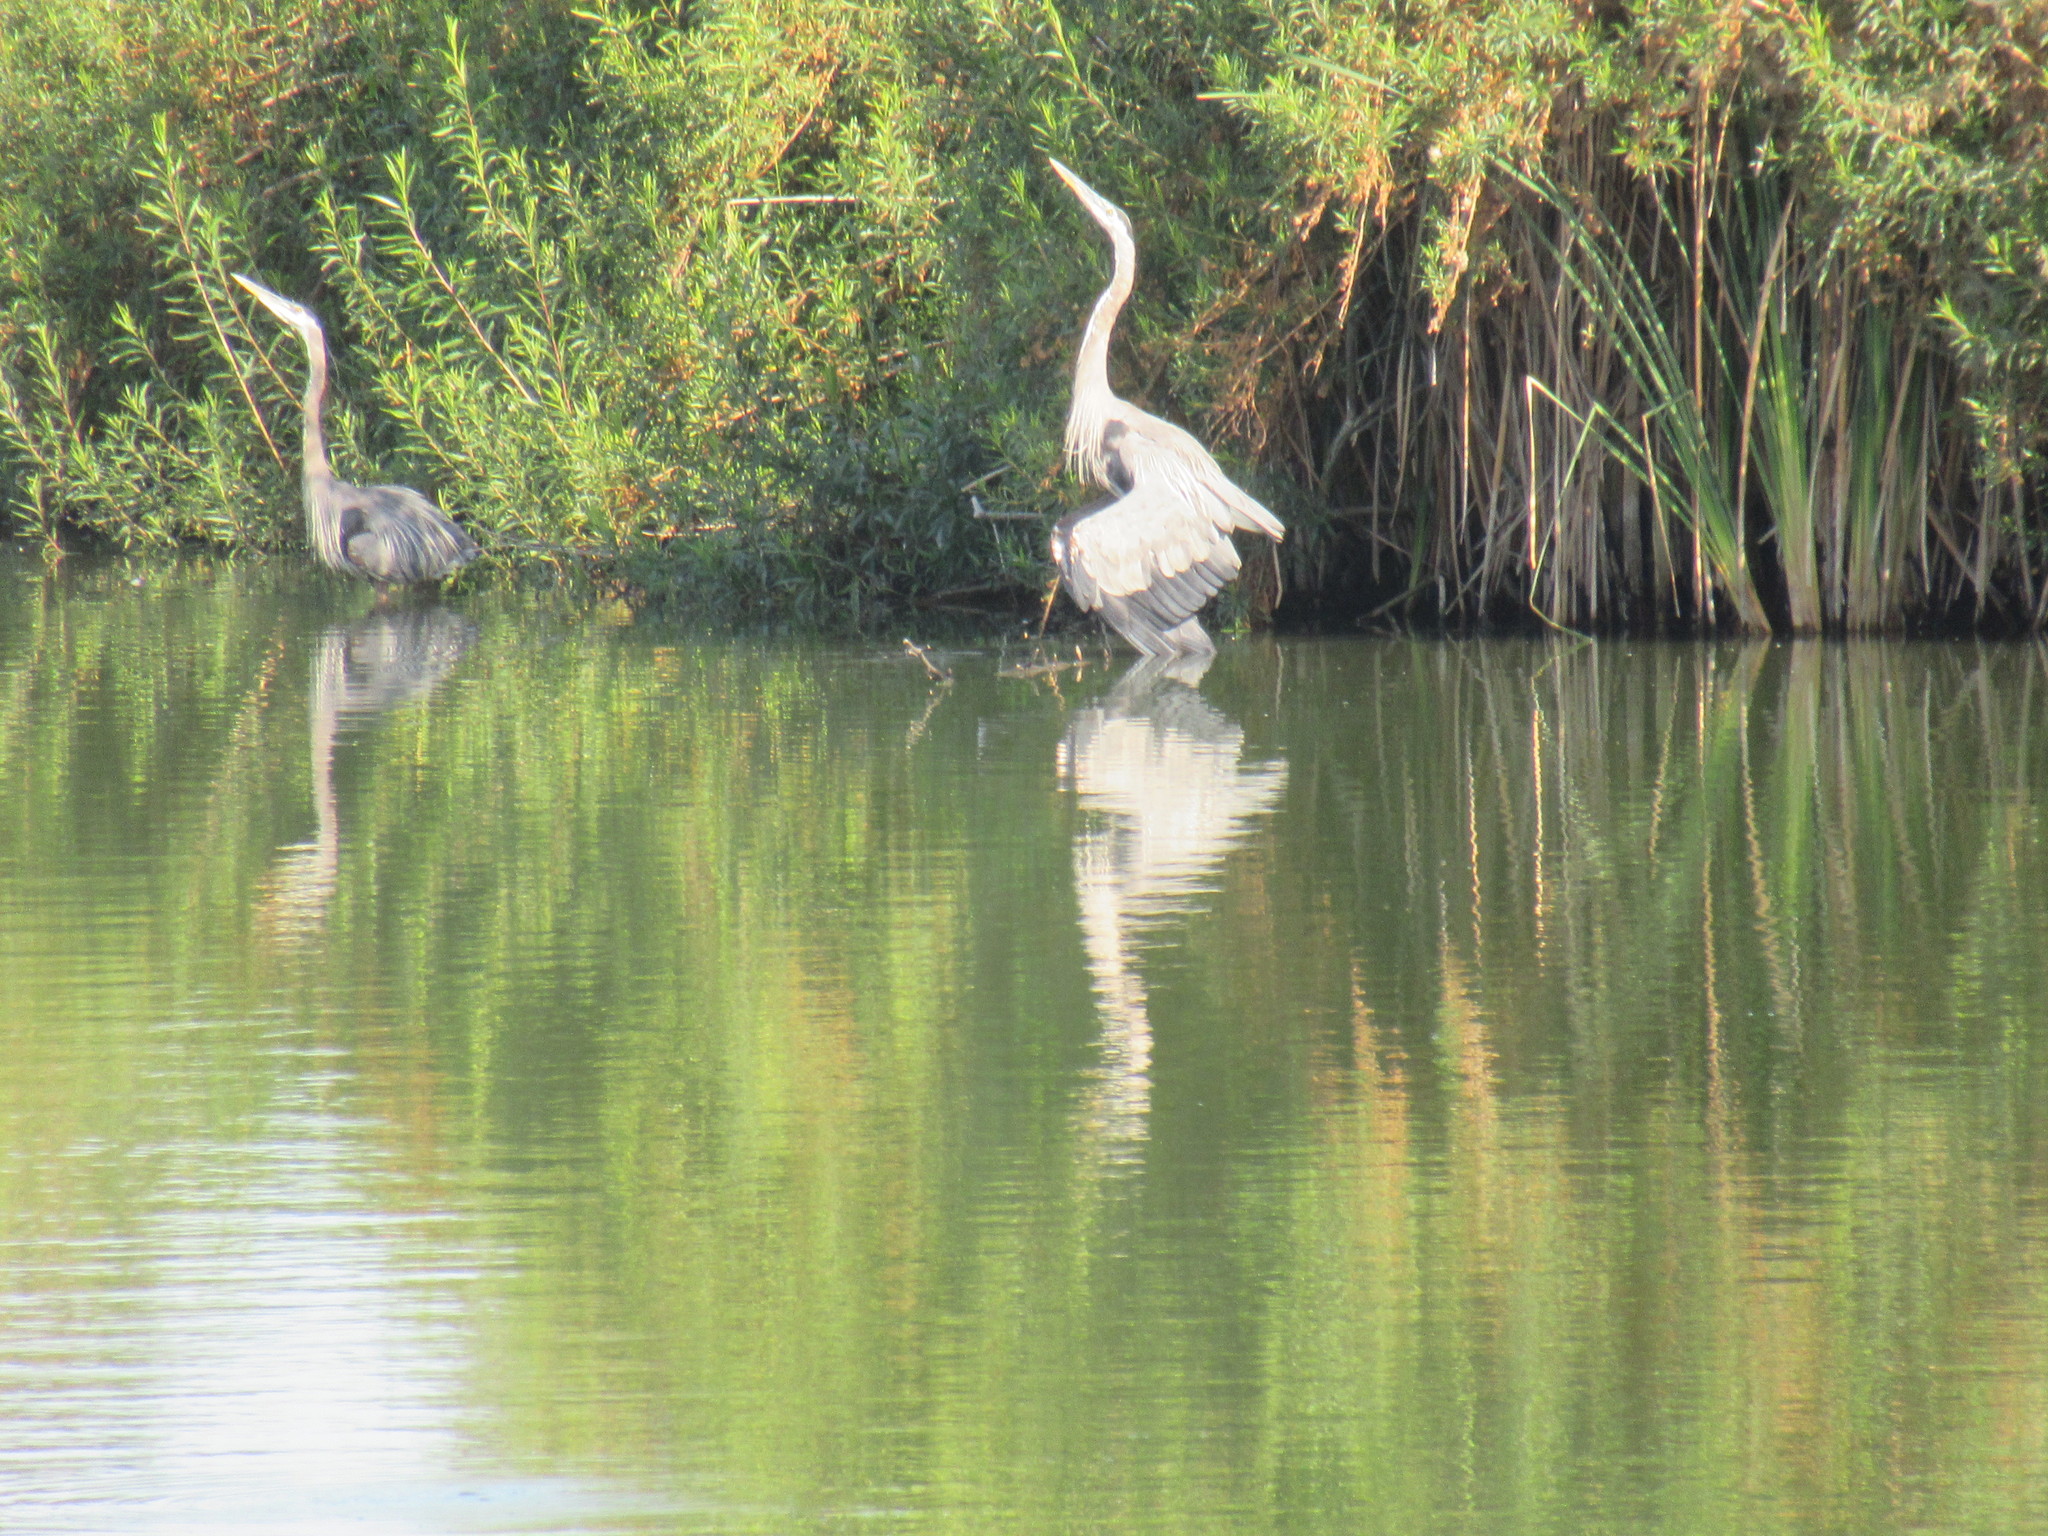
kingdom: Animalia
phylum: Chordata
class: Aves
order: Pelecaniformes
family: Ardeidae
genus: Ardea
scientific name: Ardea herodias
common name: Great blue heron
